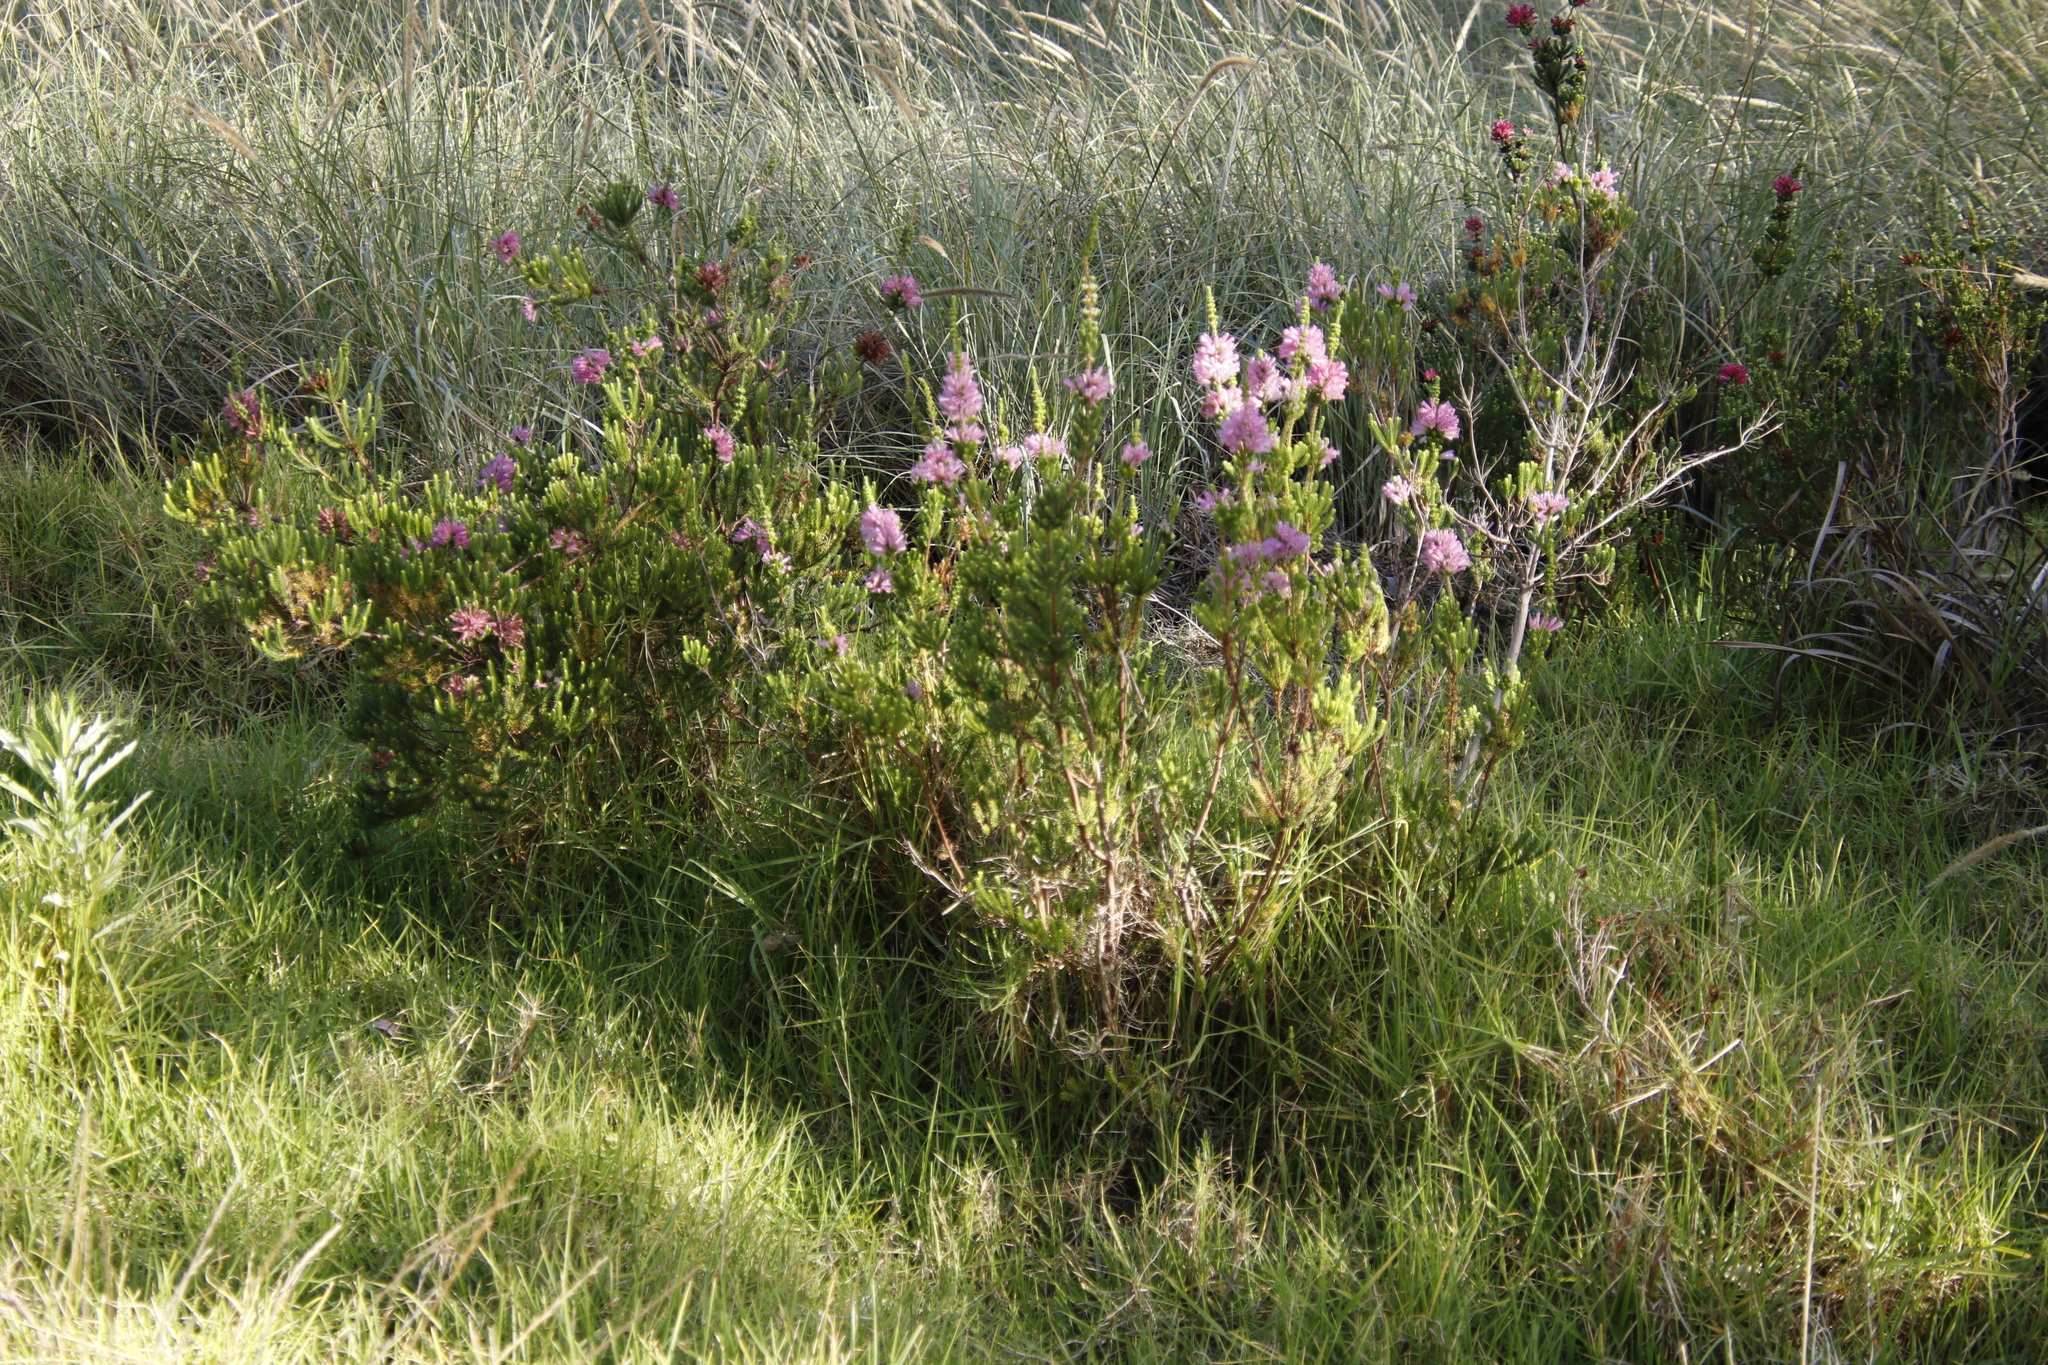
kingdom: Plantae
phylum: Tracheophyta
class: Magnoliopsida
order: Ericales
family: Ericaceae
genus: Erica
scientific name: Erica verticillata
